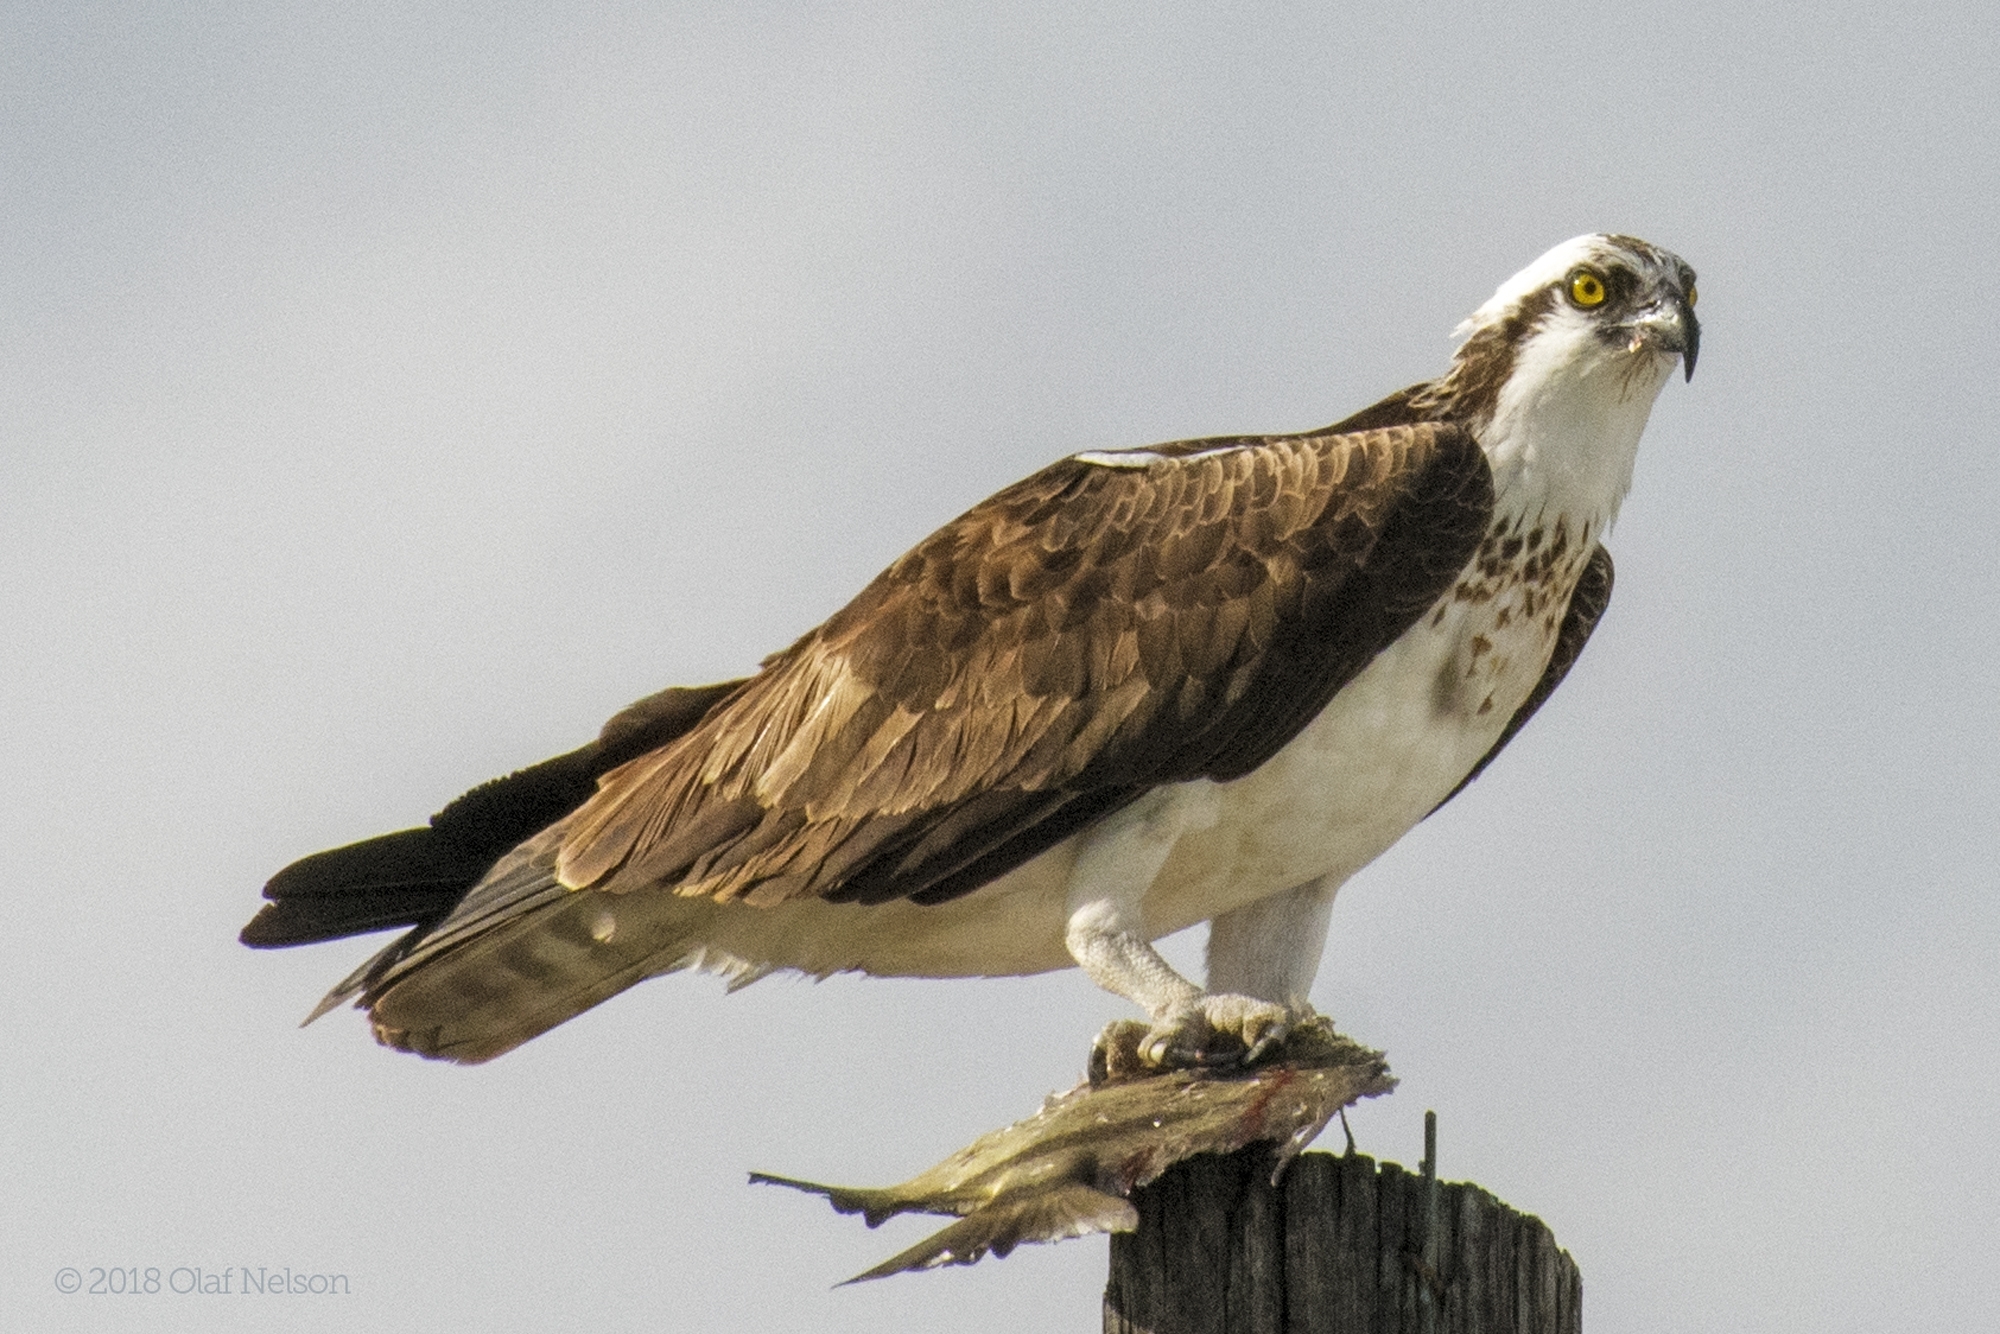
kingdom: Animalia
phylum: Chordata
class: Aves
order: Accipitriformes
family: Pandionidae
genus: Pandion
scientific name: Pandion haliaetus
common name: Osprey
